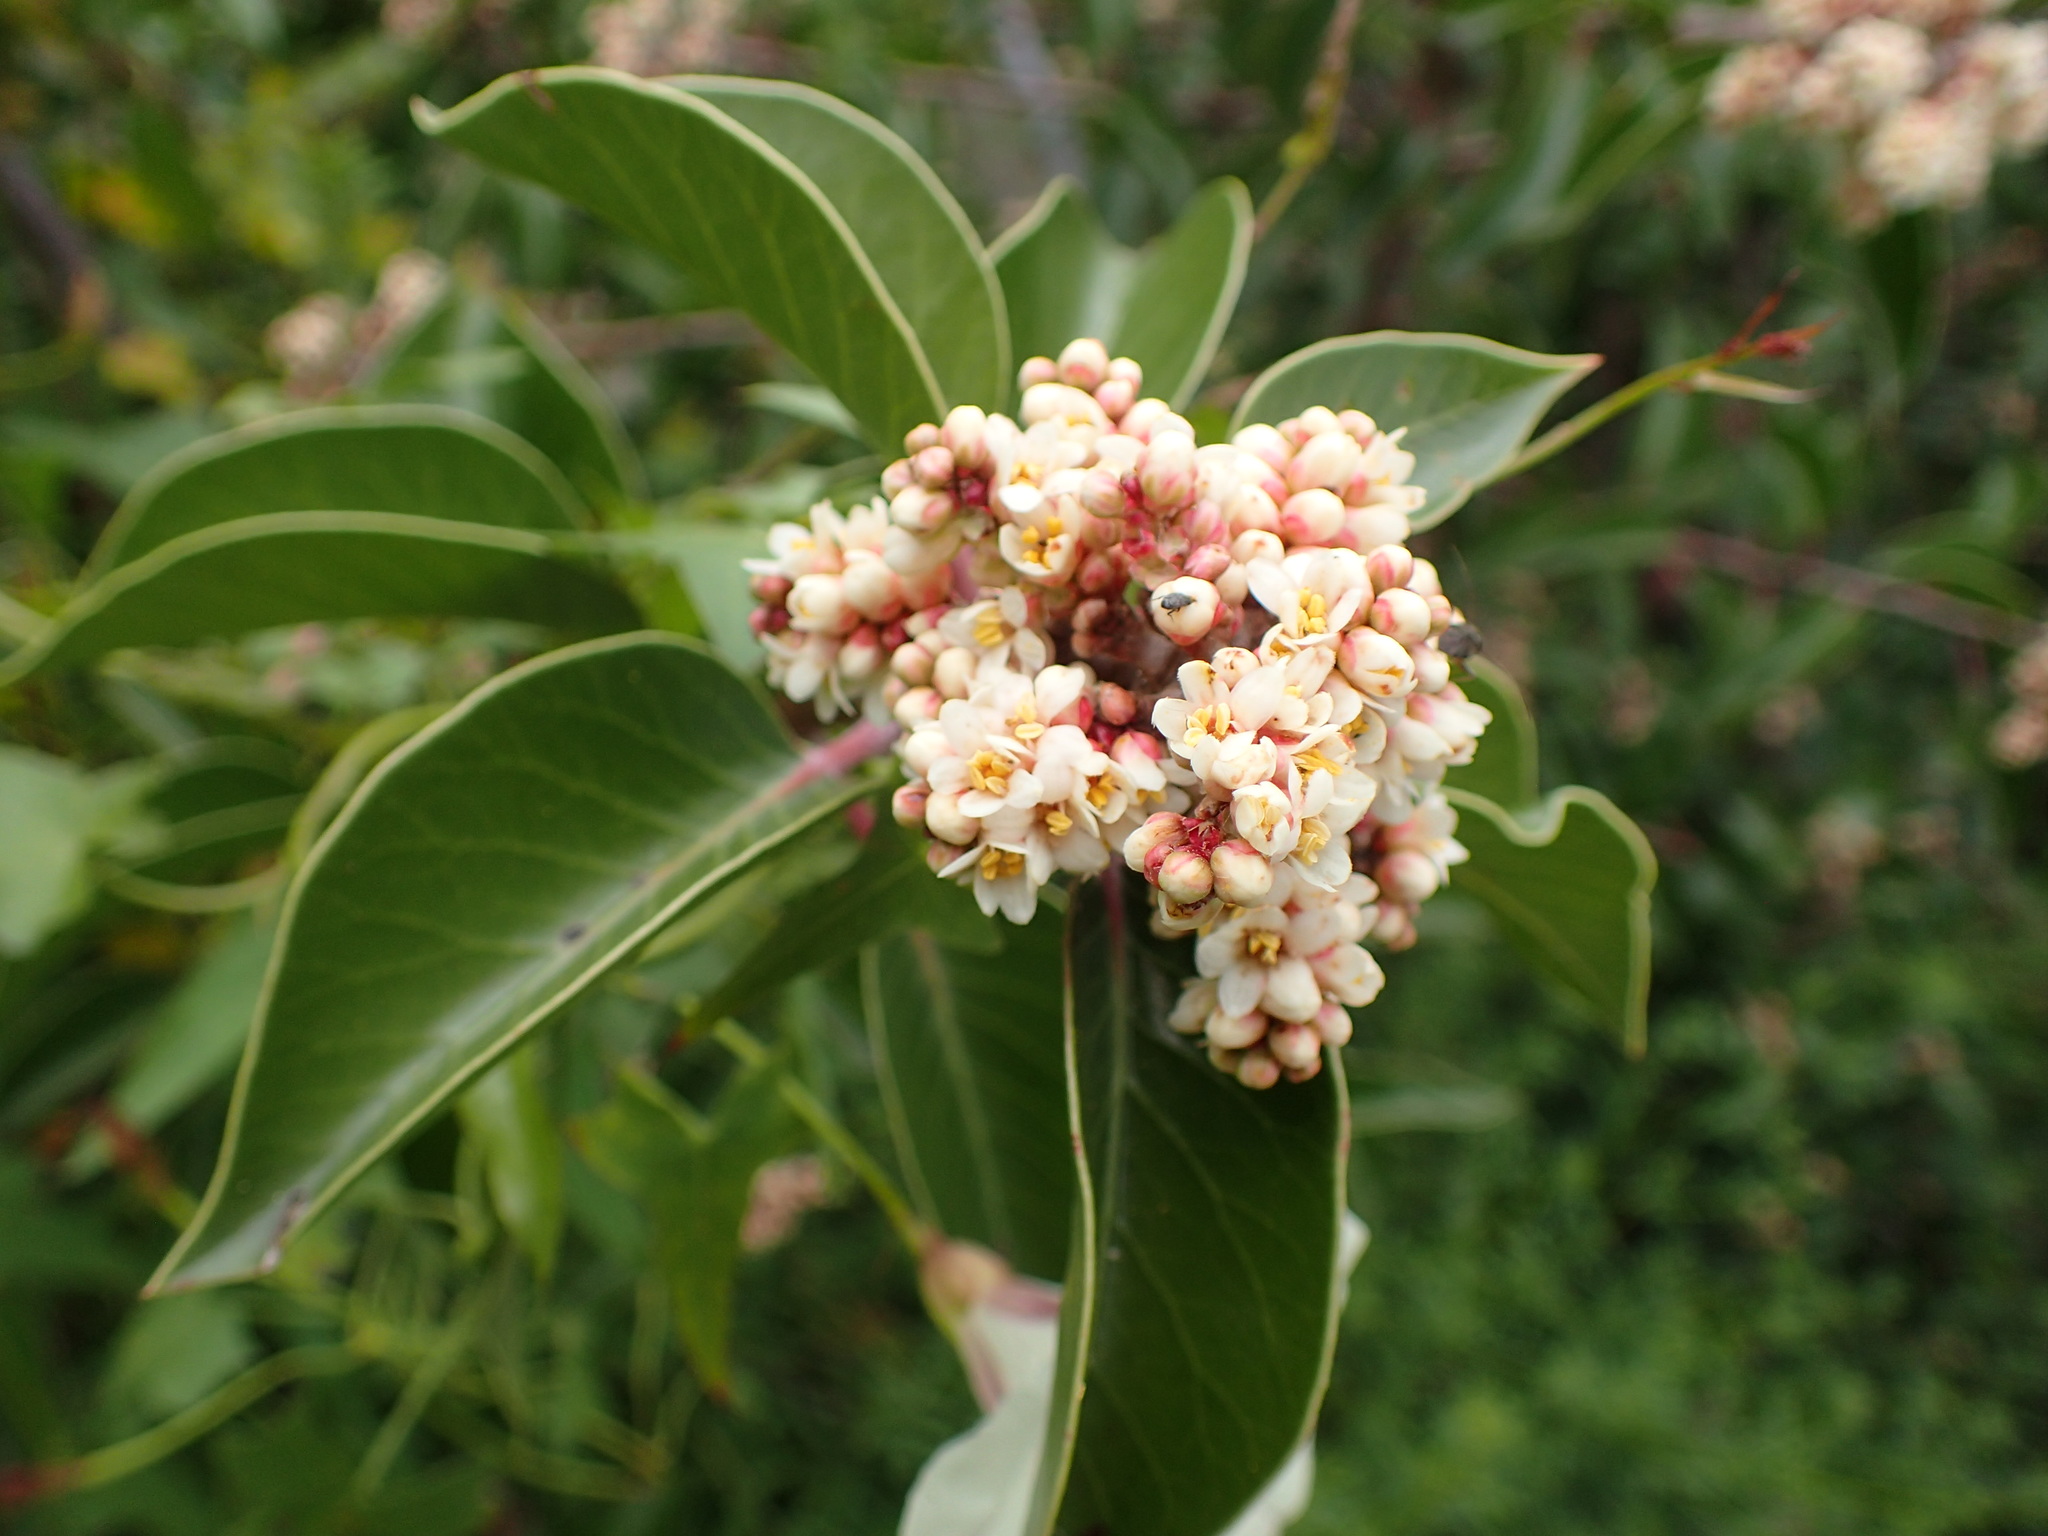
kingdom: Plantae
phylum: Tracheophyta
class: Magnoliopsida
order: Sapindales
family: Anacardiaceae
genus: Rhus
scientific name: Rhus ovata
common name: Sugar sumac
